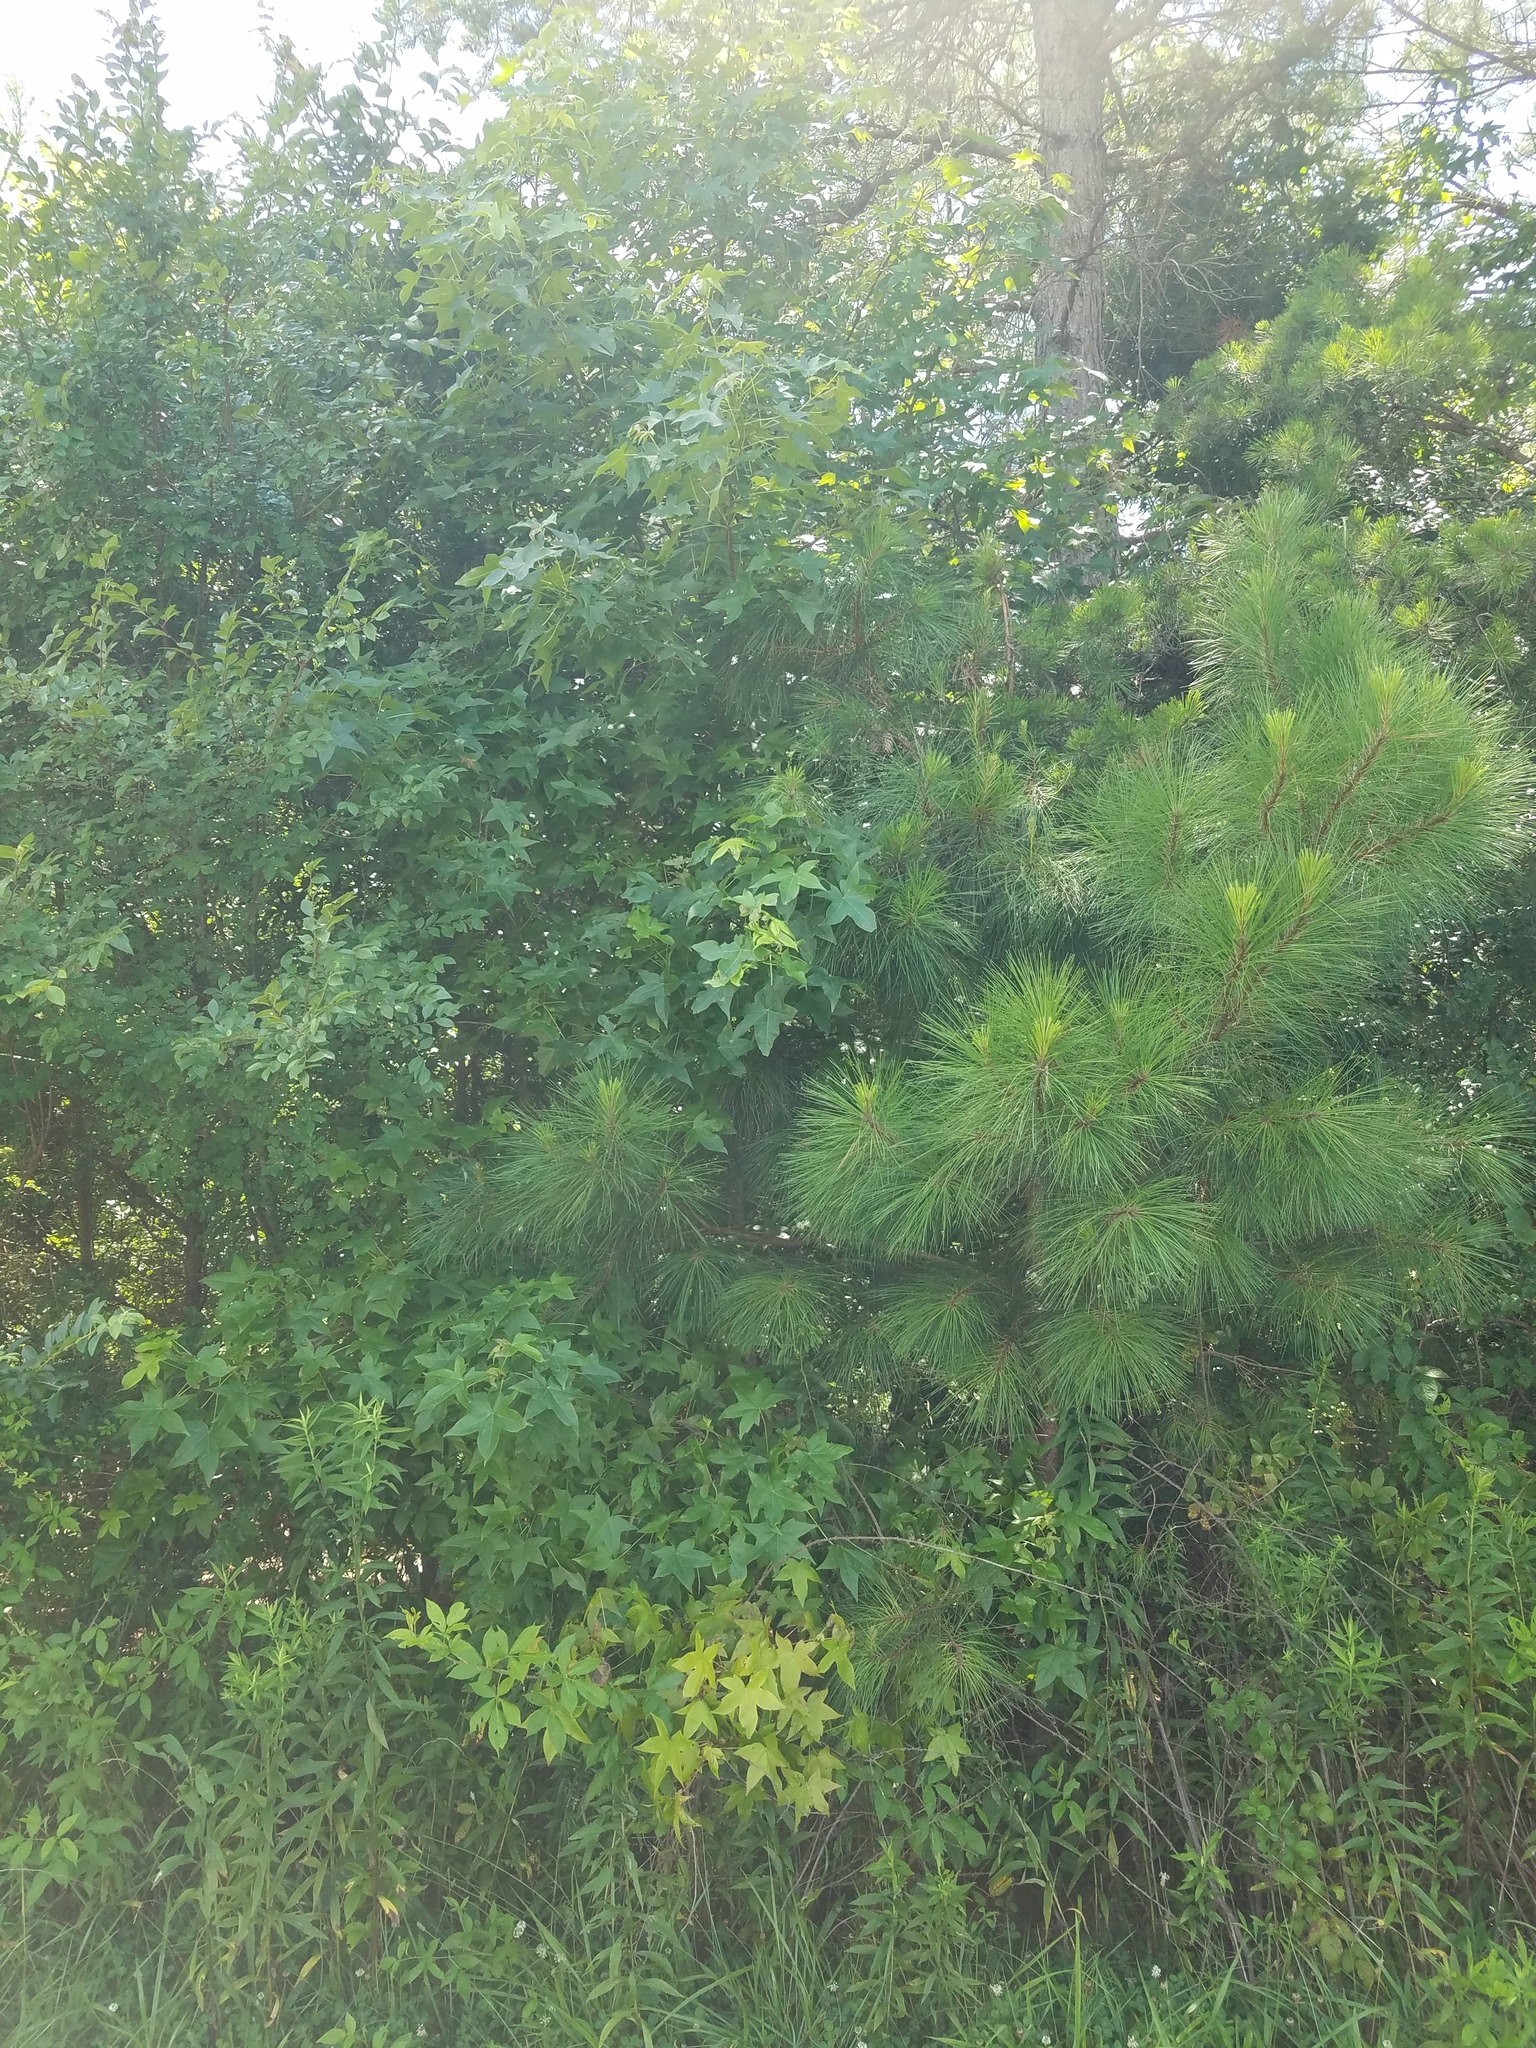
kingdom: Plantae
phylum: Tracheophyta
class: Magnoliopsida
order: Saxifragales
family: Altingiaceae
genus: Liquidambar
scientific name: Liquidambar styraciflua
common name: Sweet gum
